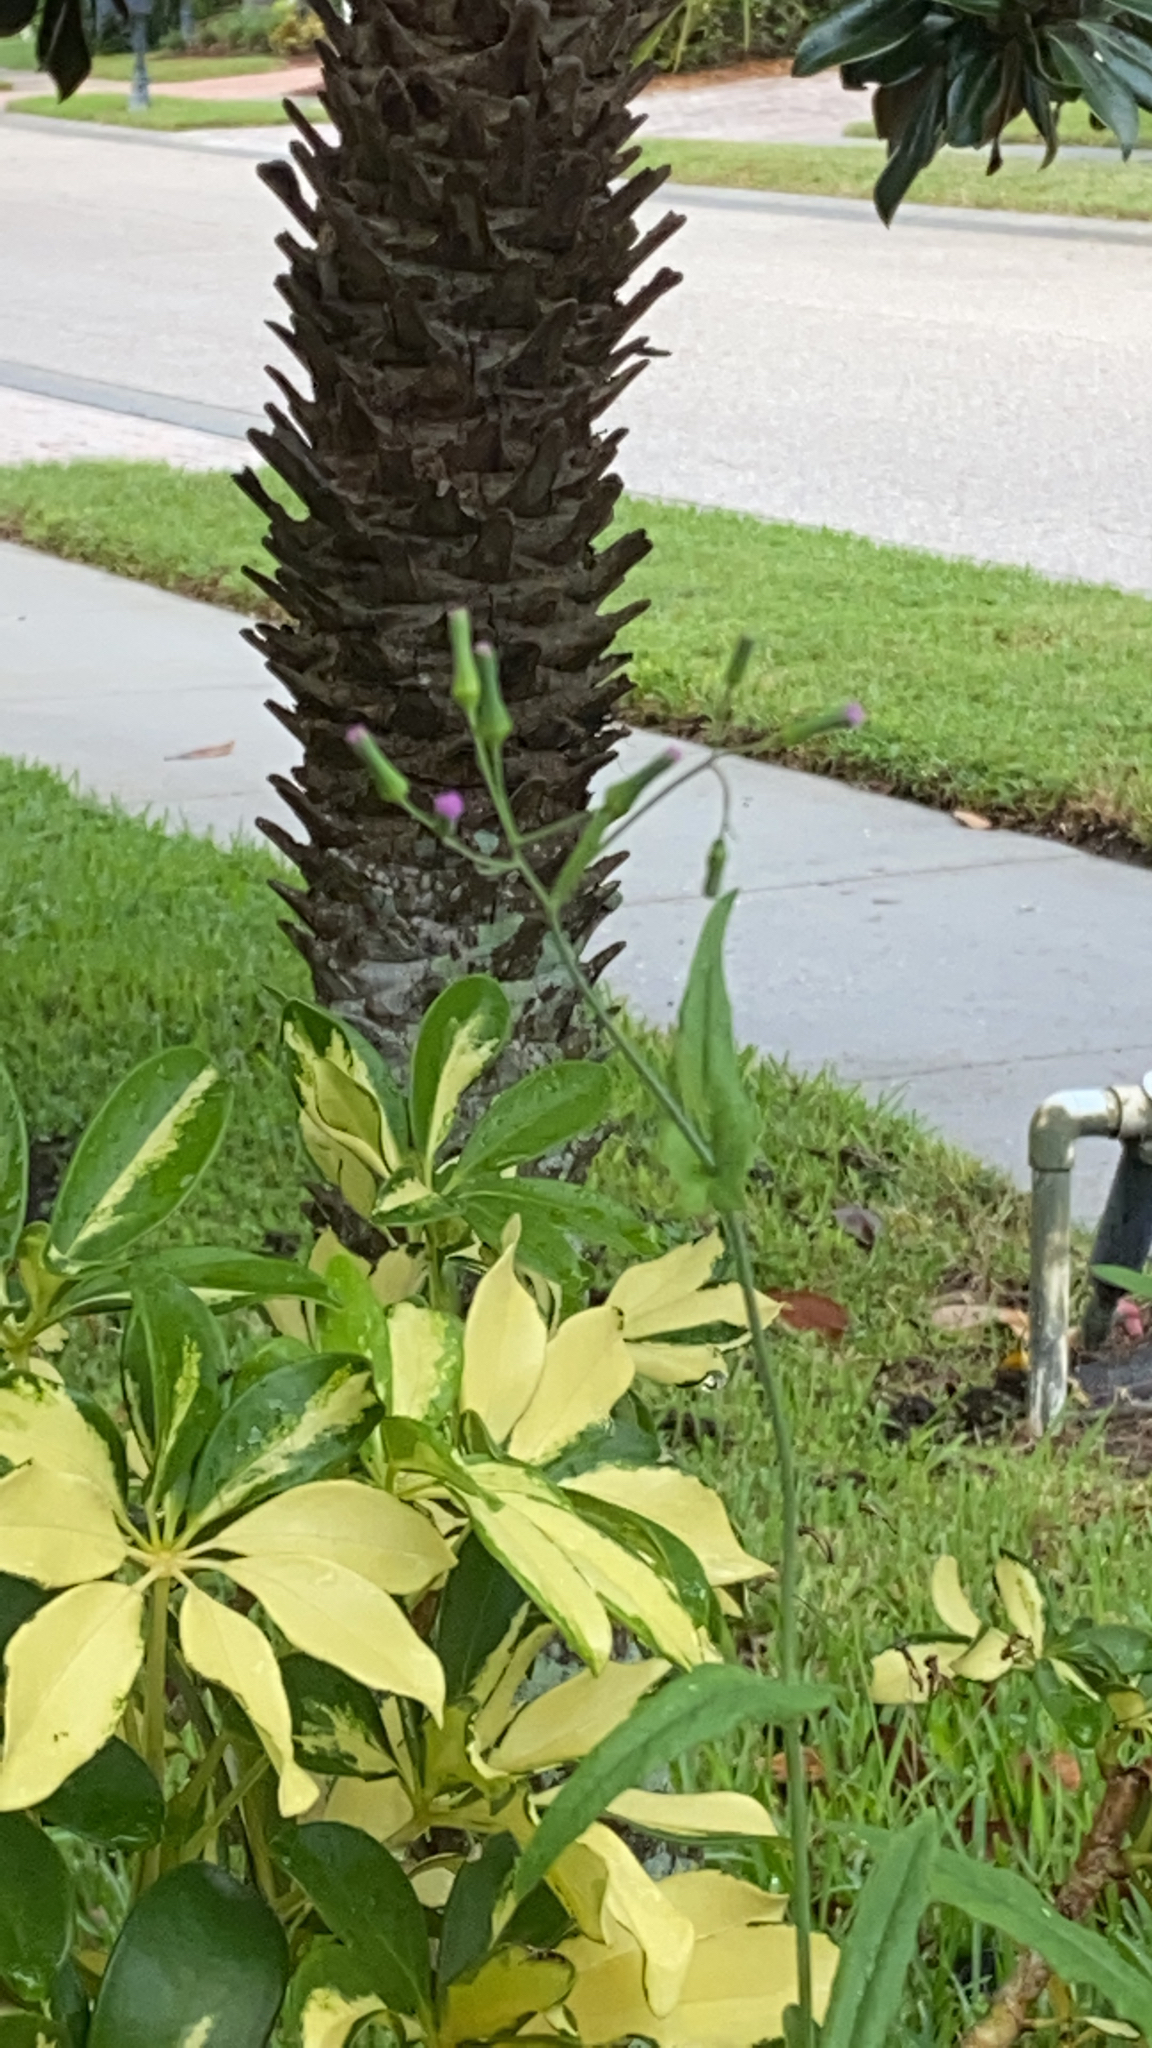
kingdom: Plantae
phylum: Tracheophyta
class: Magnoliopsida
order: Asterales
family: Asteraceae
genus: Emilia
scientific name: Emilia sonchifolia
